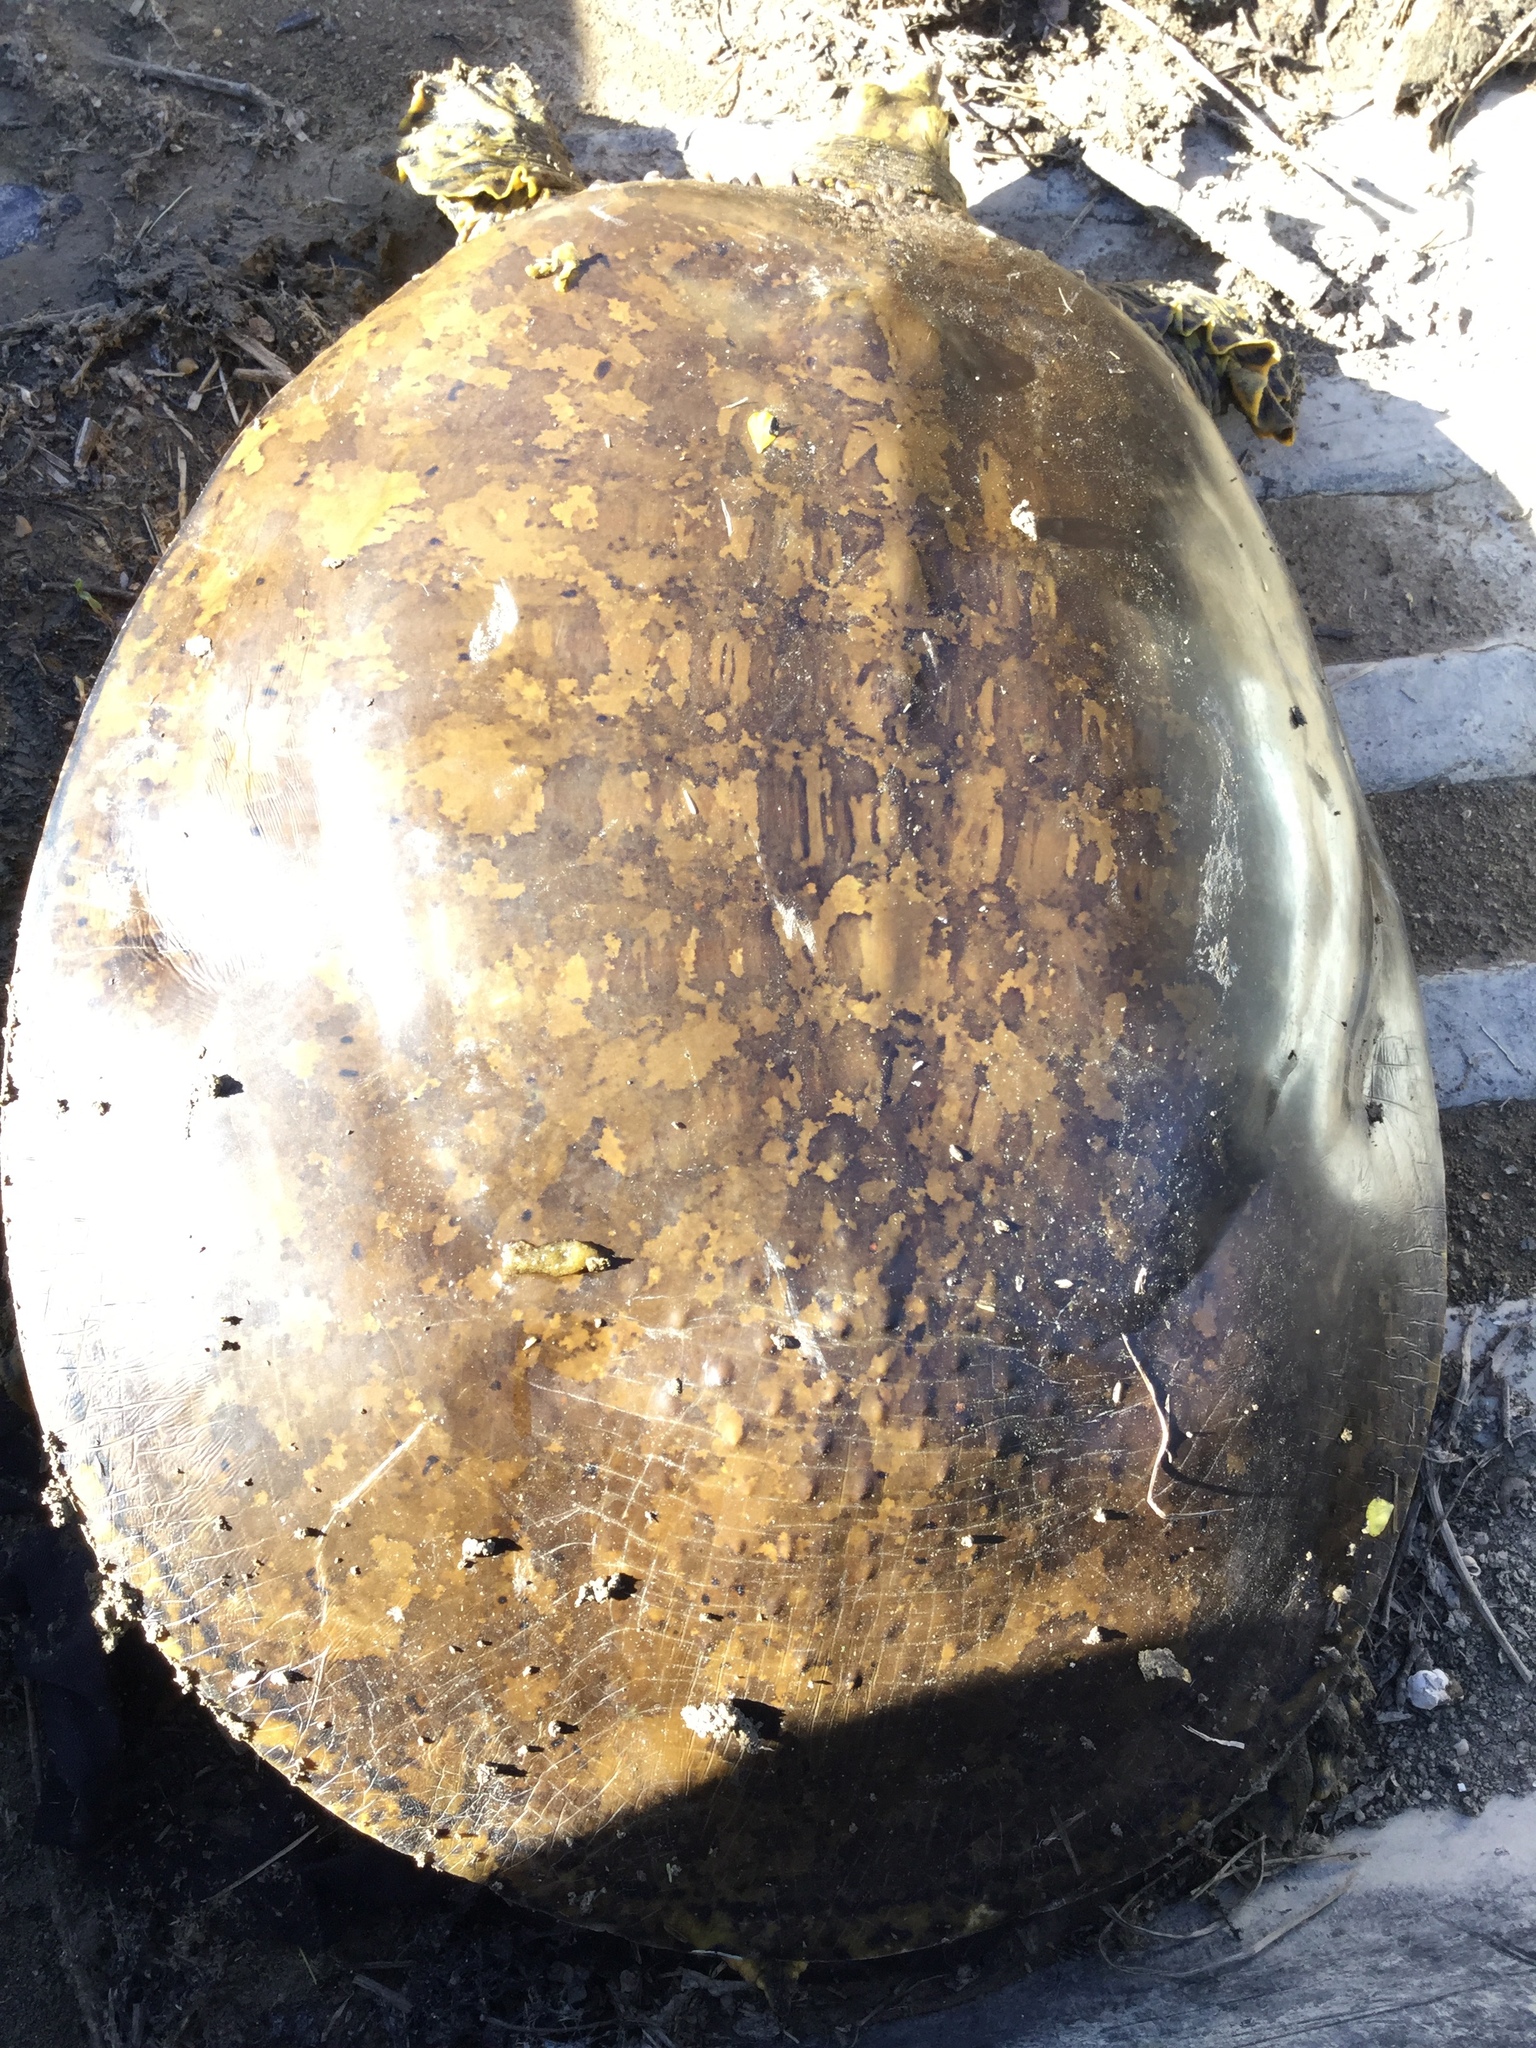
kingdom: Animalia
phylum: Chordata
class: Testudines
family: Trionychidae
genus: Apalone
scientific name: Apalone spinifera
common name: Spiny softshell turtle
